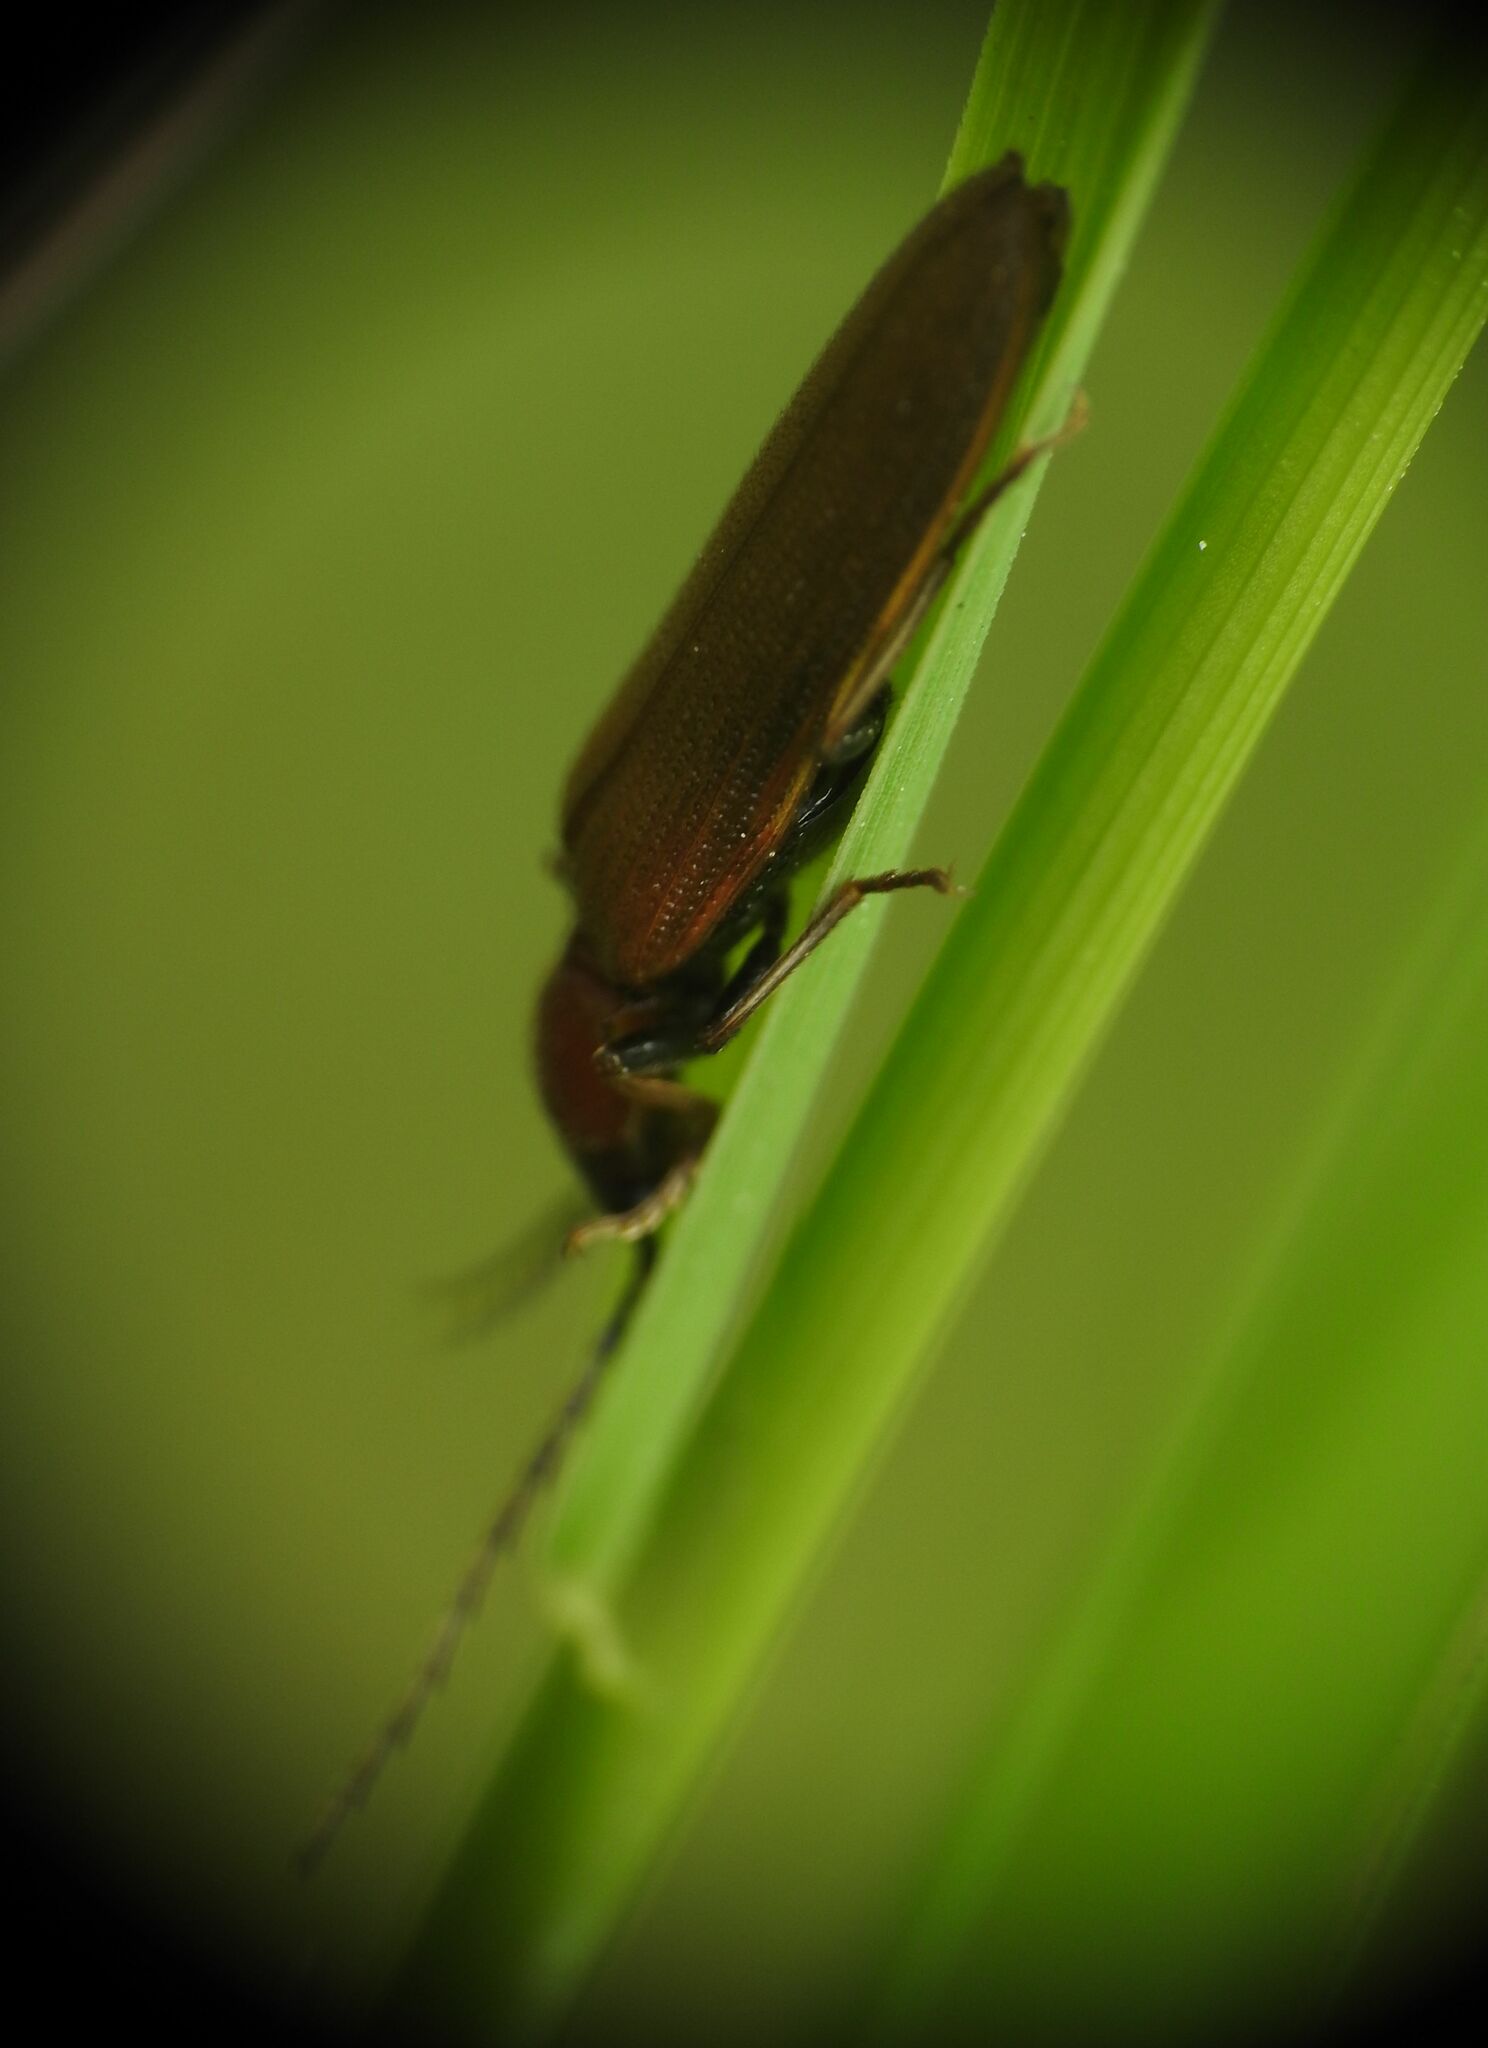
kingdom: Animalia
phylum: Arthropoda
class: Insecta
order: Coleoptera
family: Elateridae
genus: Denticollis
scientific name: Denticollis linearis
